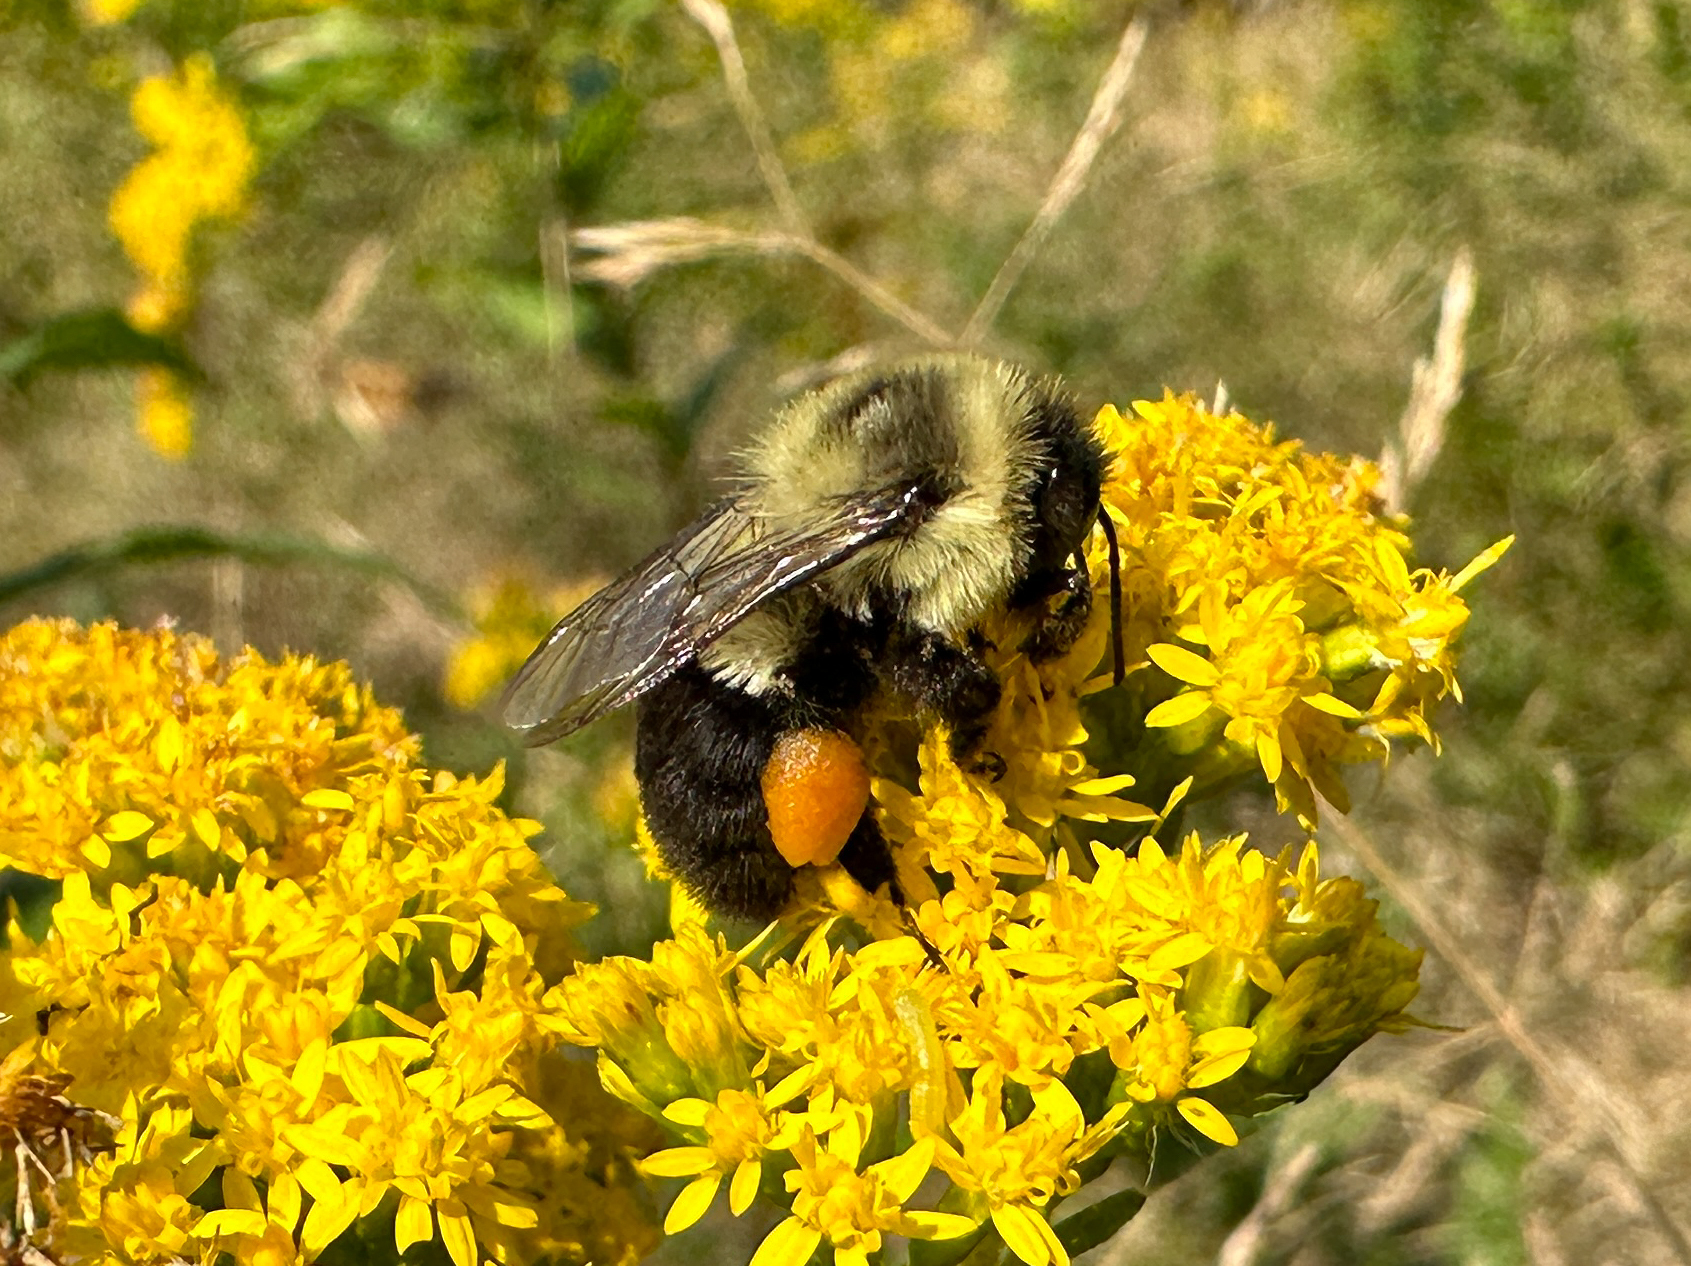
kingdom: Animalia
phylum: Arthropoda
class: Insecta
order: Hymenoptera
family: Apidae
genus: Bombus
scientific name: Bombus impatiens
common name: Common eastern bumble bee
